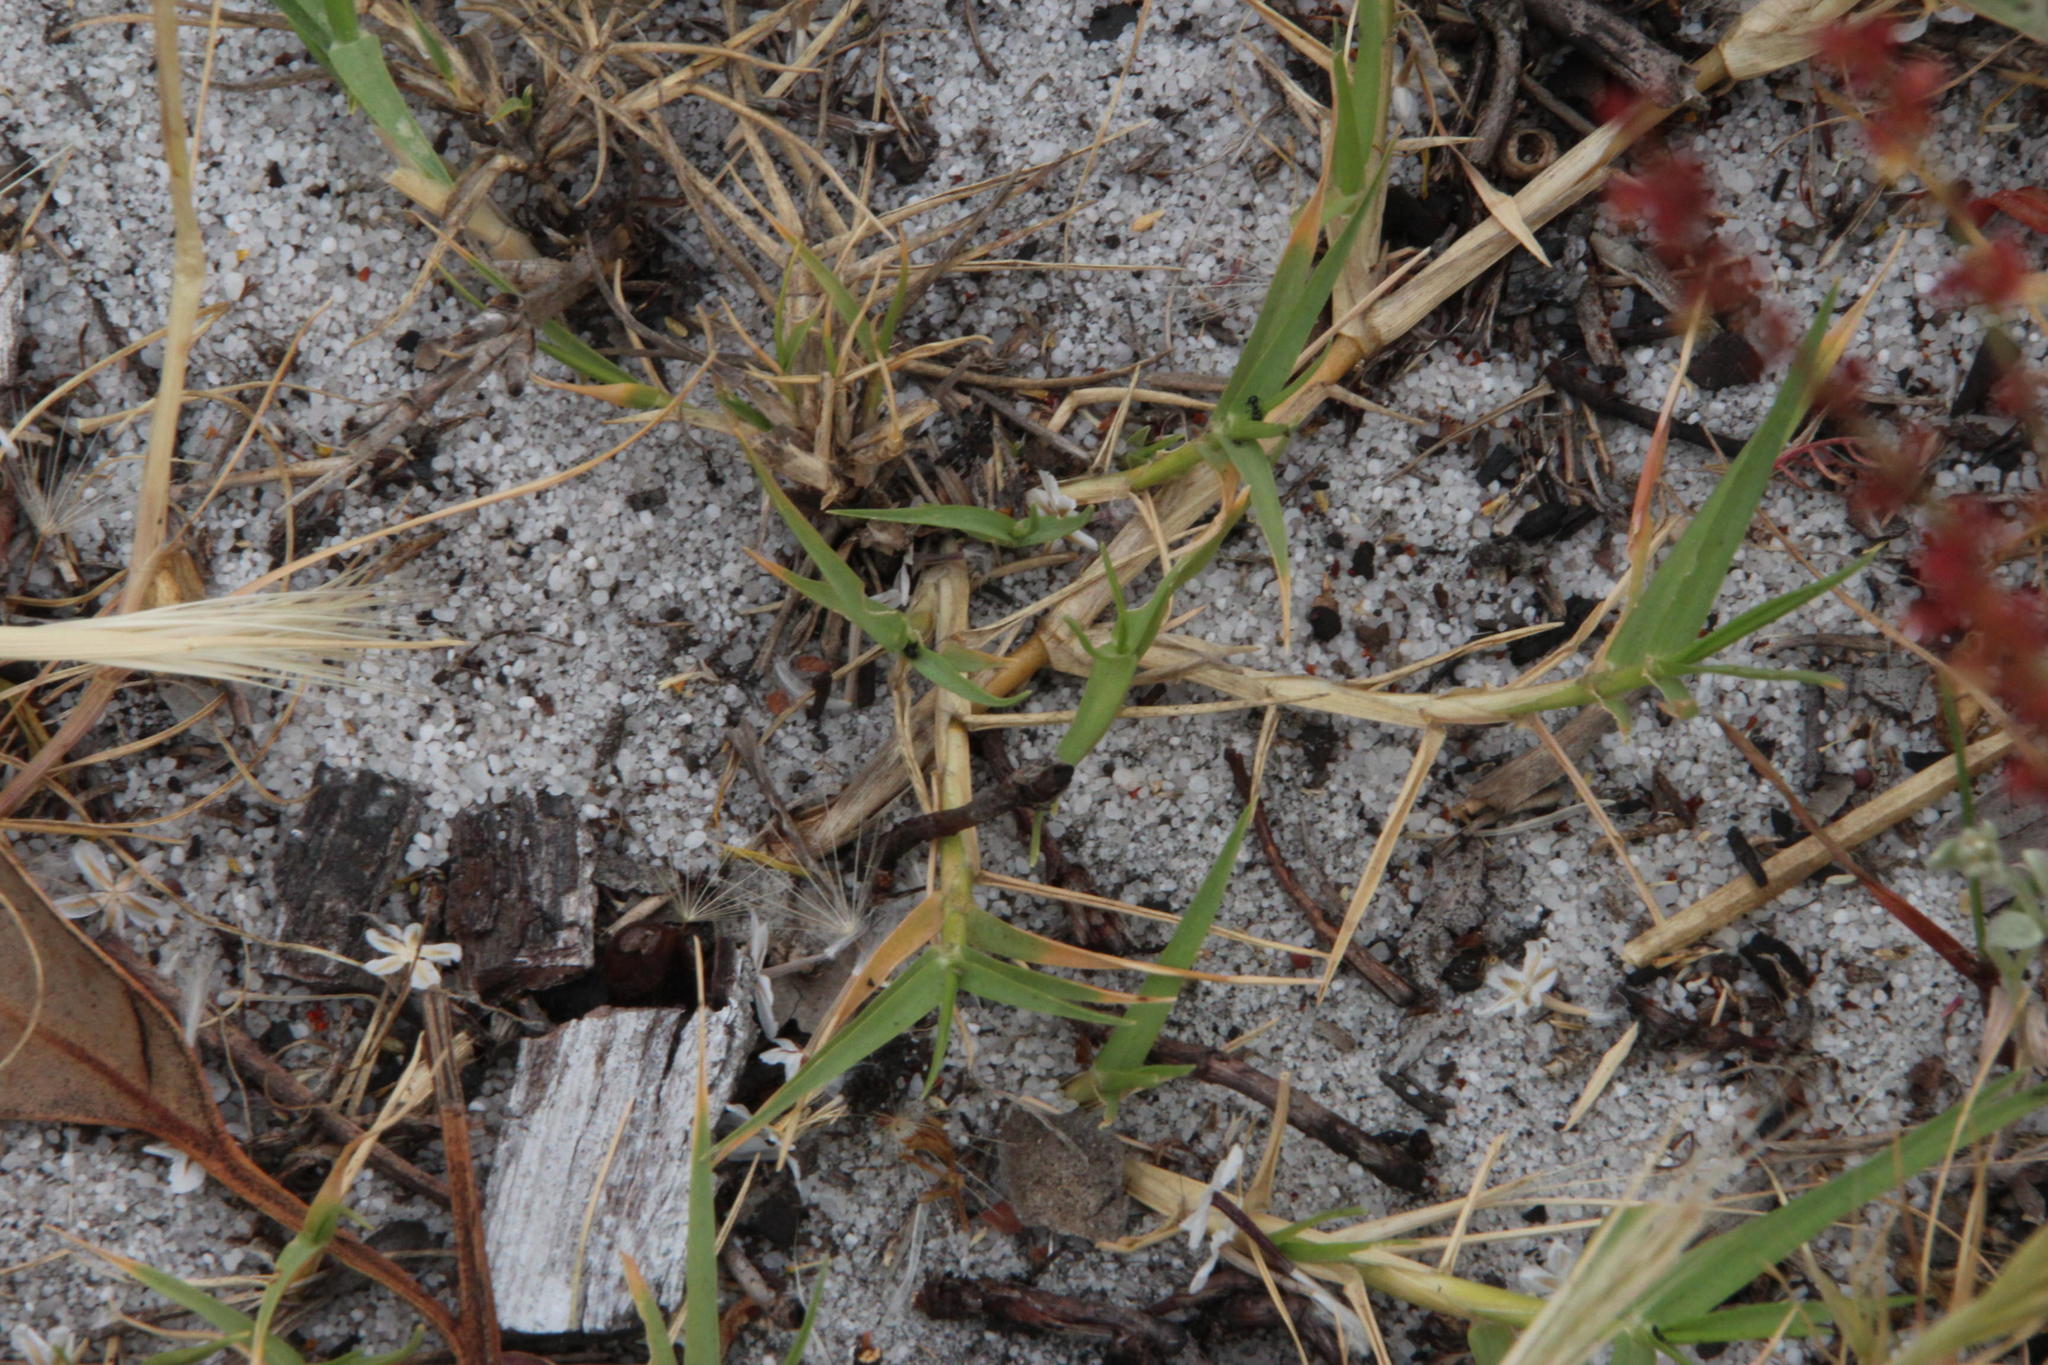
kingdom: Plantae
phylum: Tracheophyta
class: Liliopsida
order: Poales
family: Poaceae
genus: Cynodon
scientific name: Cynodon dactylon
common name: Bermuda grass
